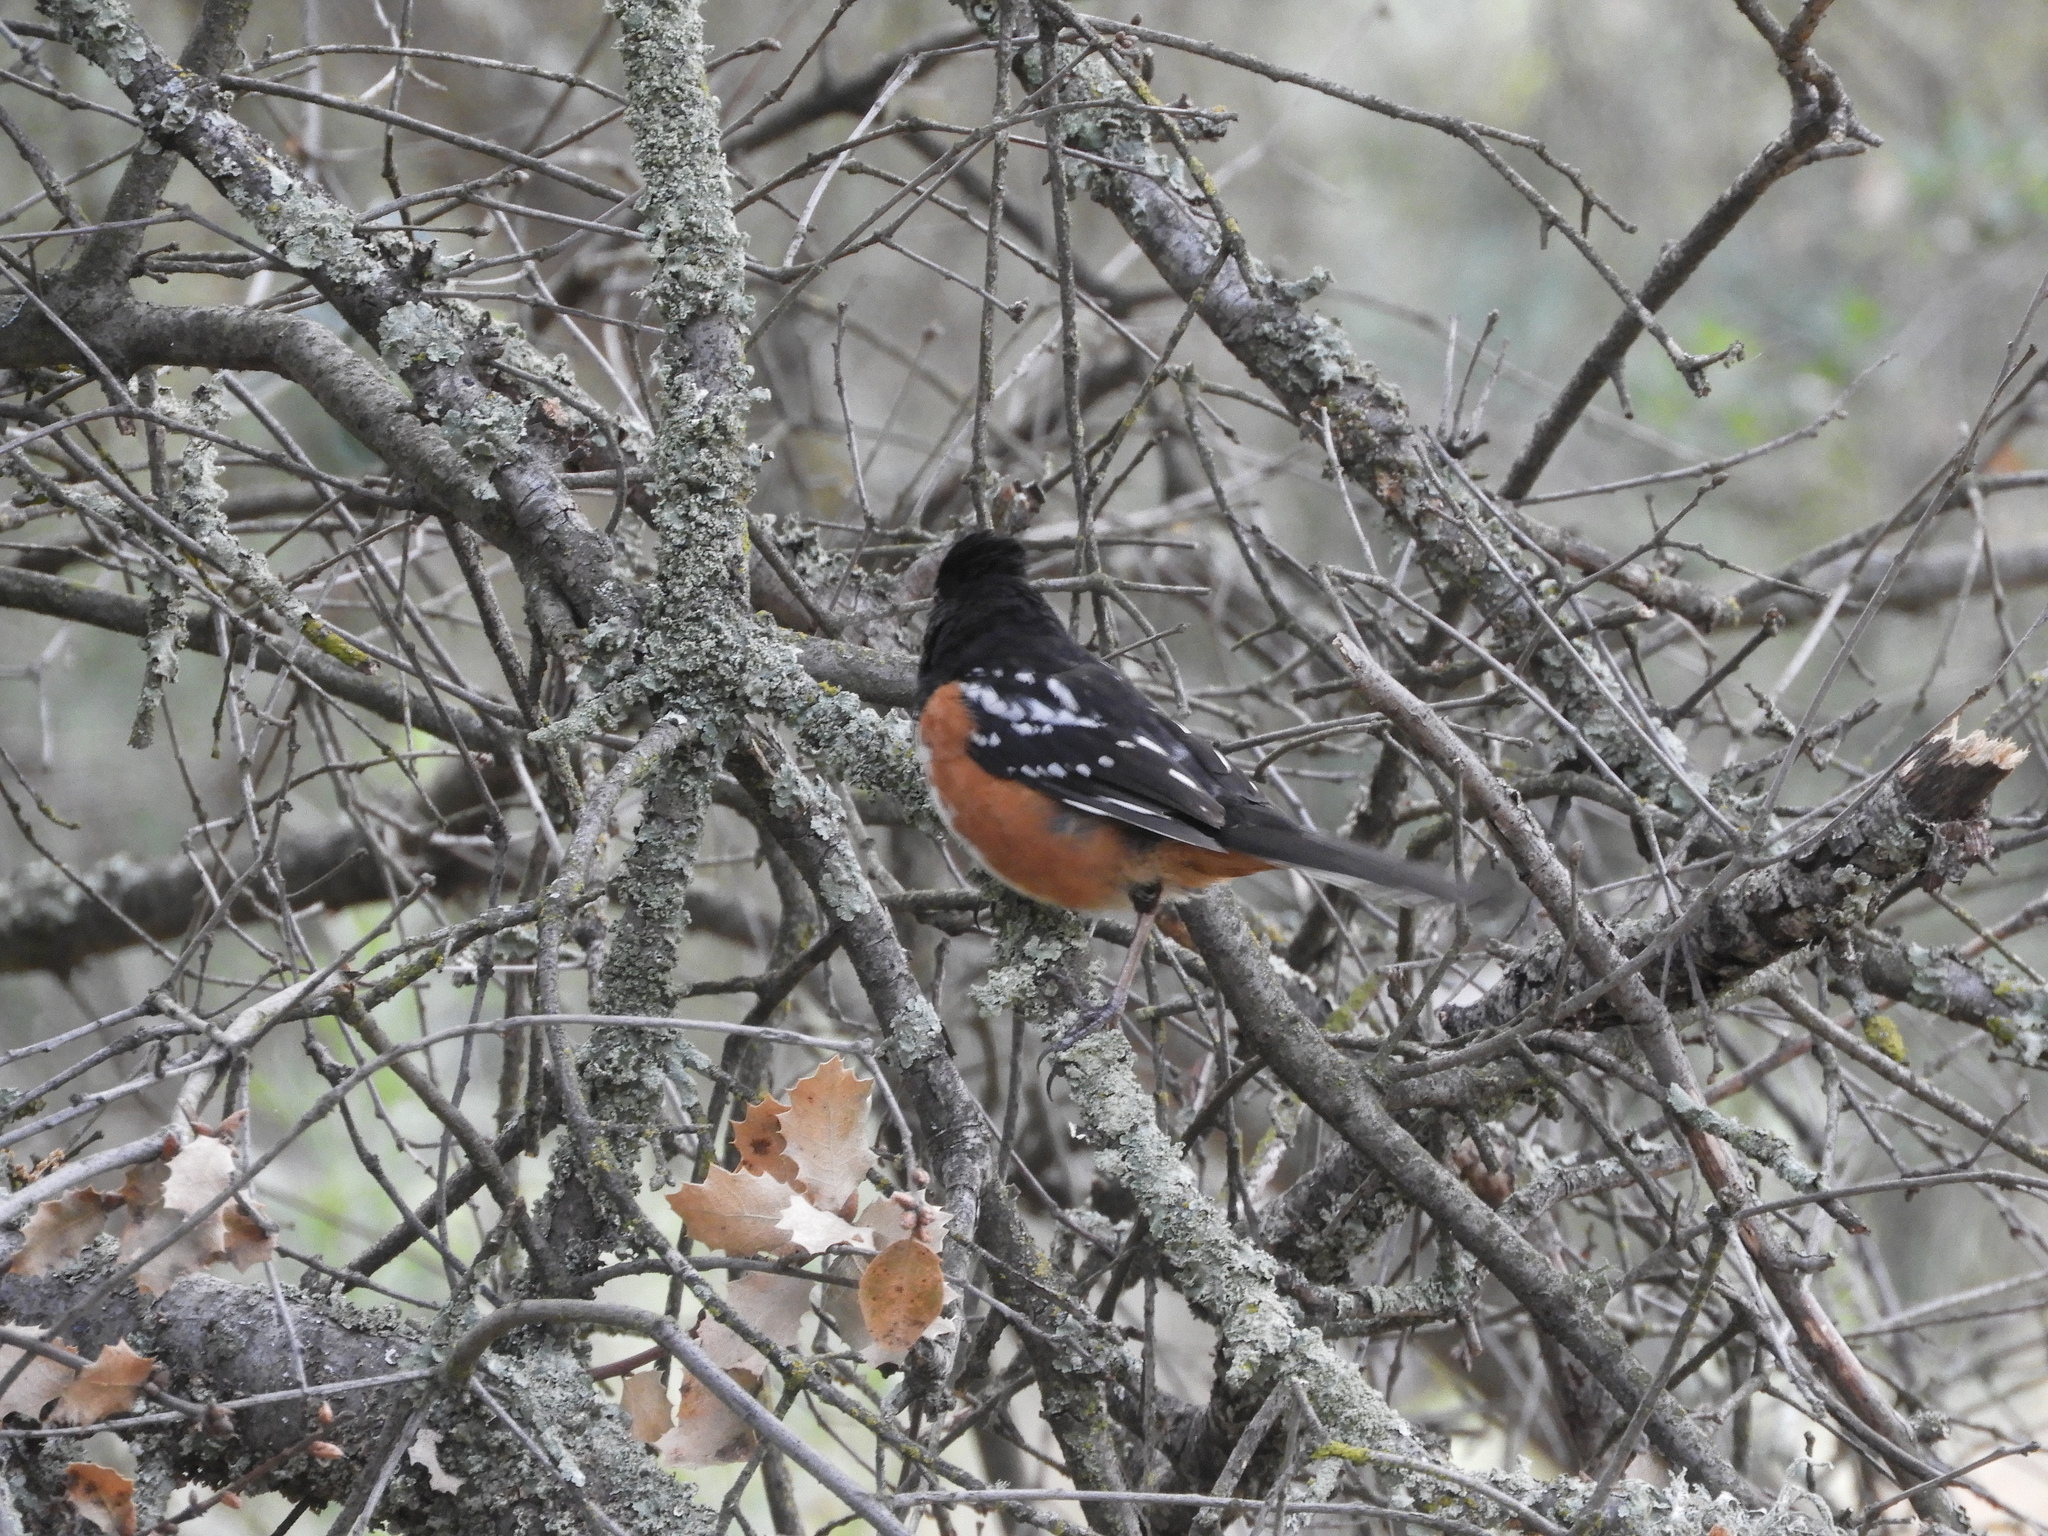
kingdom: Animalia
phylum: Chordata
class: Aves
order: Passeriformes
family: Passerellidae
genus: Pipilo
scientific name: Pipilo maculatus
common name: Spotted towhee
